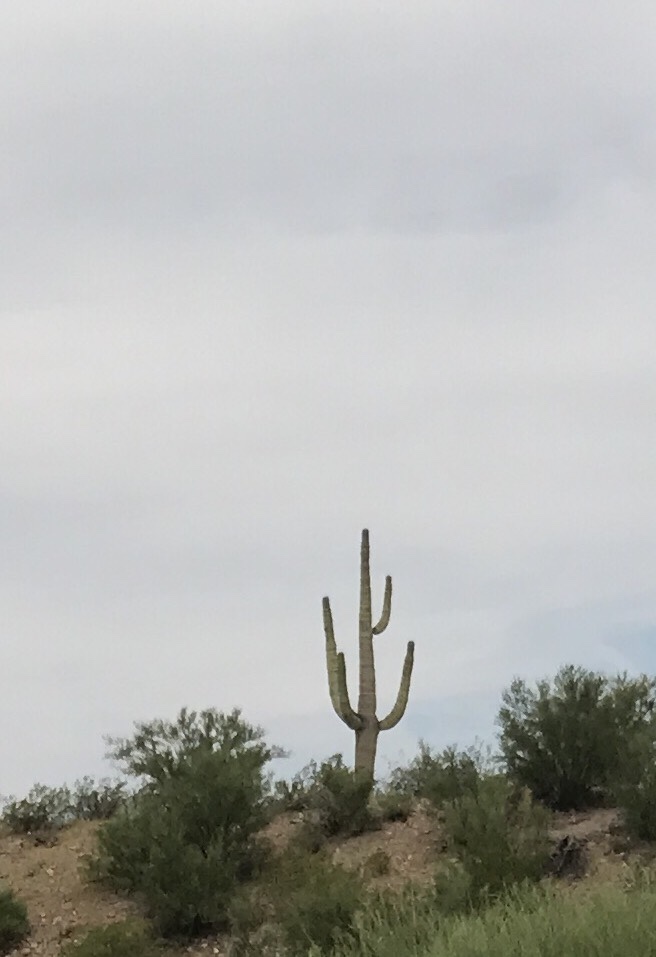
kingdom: Plantae
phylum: Tracheophyta
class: Magnoliopsida
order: Caryophyllales
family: Cactaceae
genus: Carnegiea
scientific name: Carnegiea gigantea
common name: Saguaro
